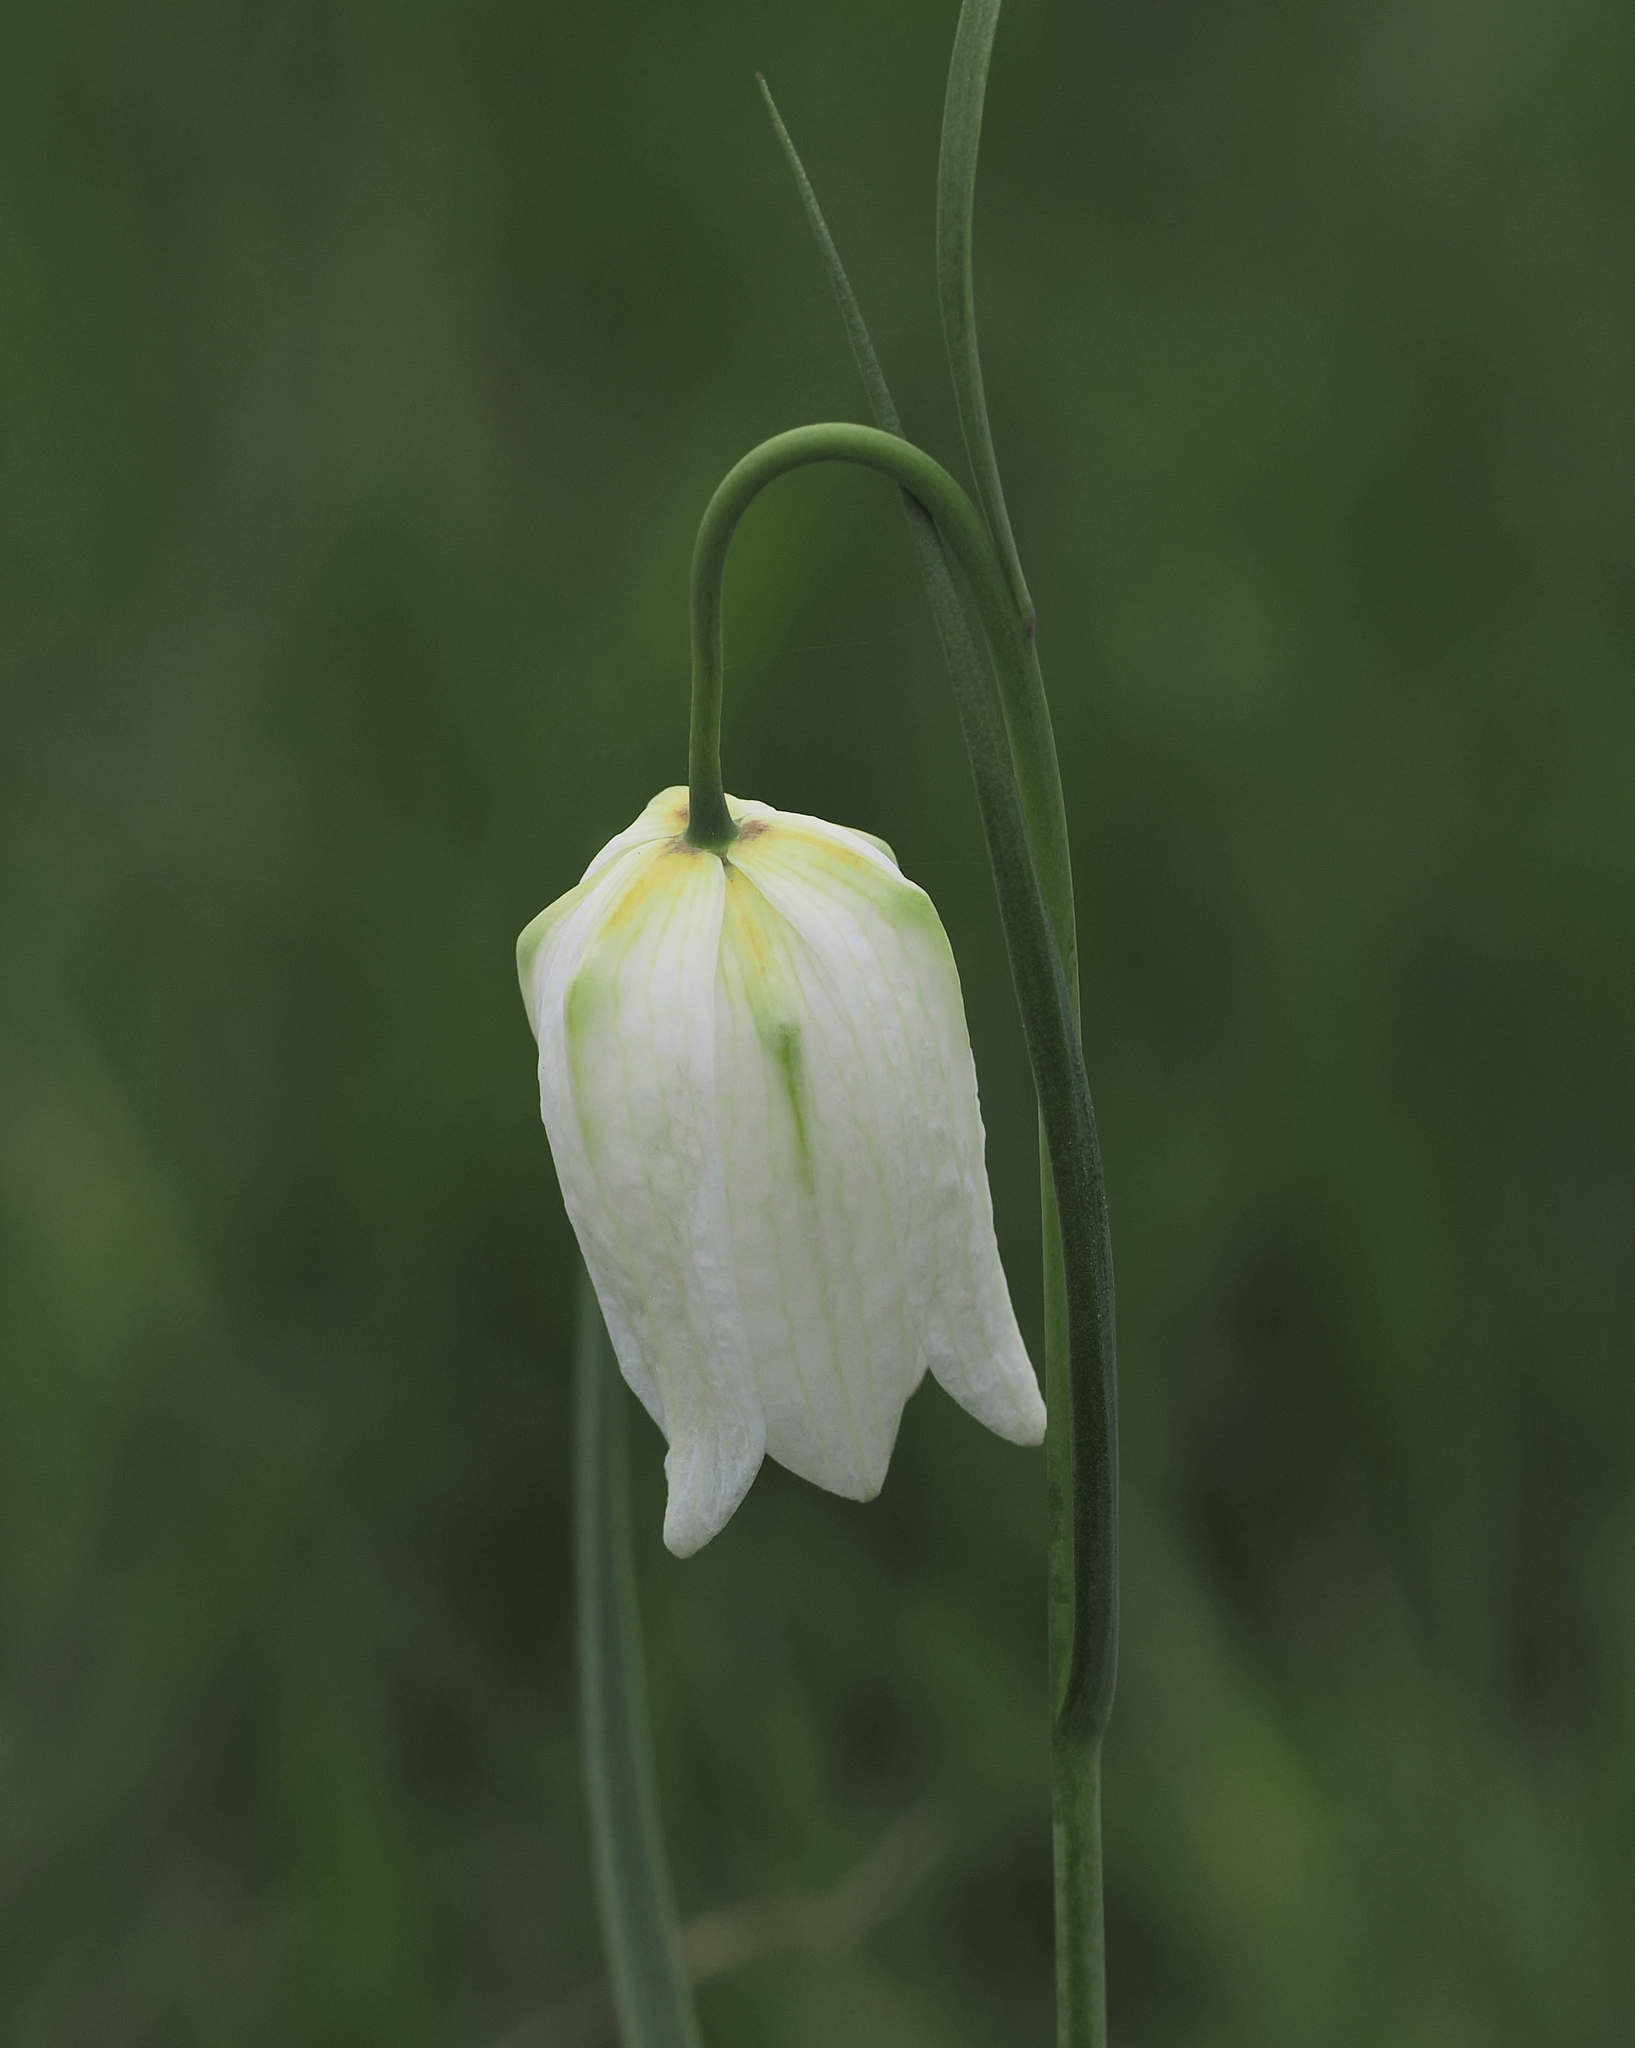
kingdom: Plantae
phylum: Tracheophyta
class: Liliopsida
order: Liliales
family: Liliaceae
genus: Fritillaria
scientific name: Fritillaria meleagris
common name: Fritillary
